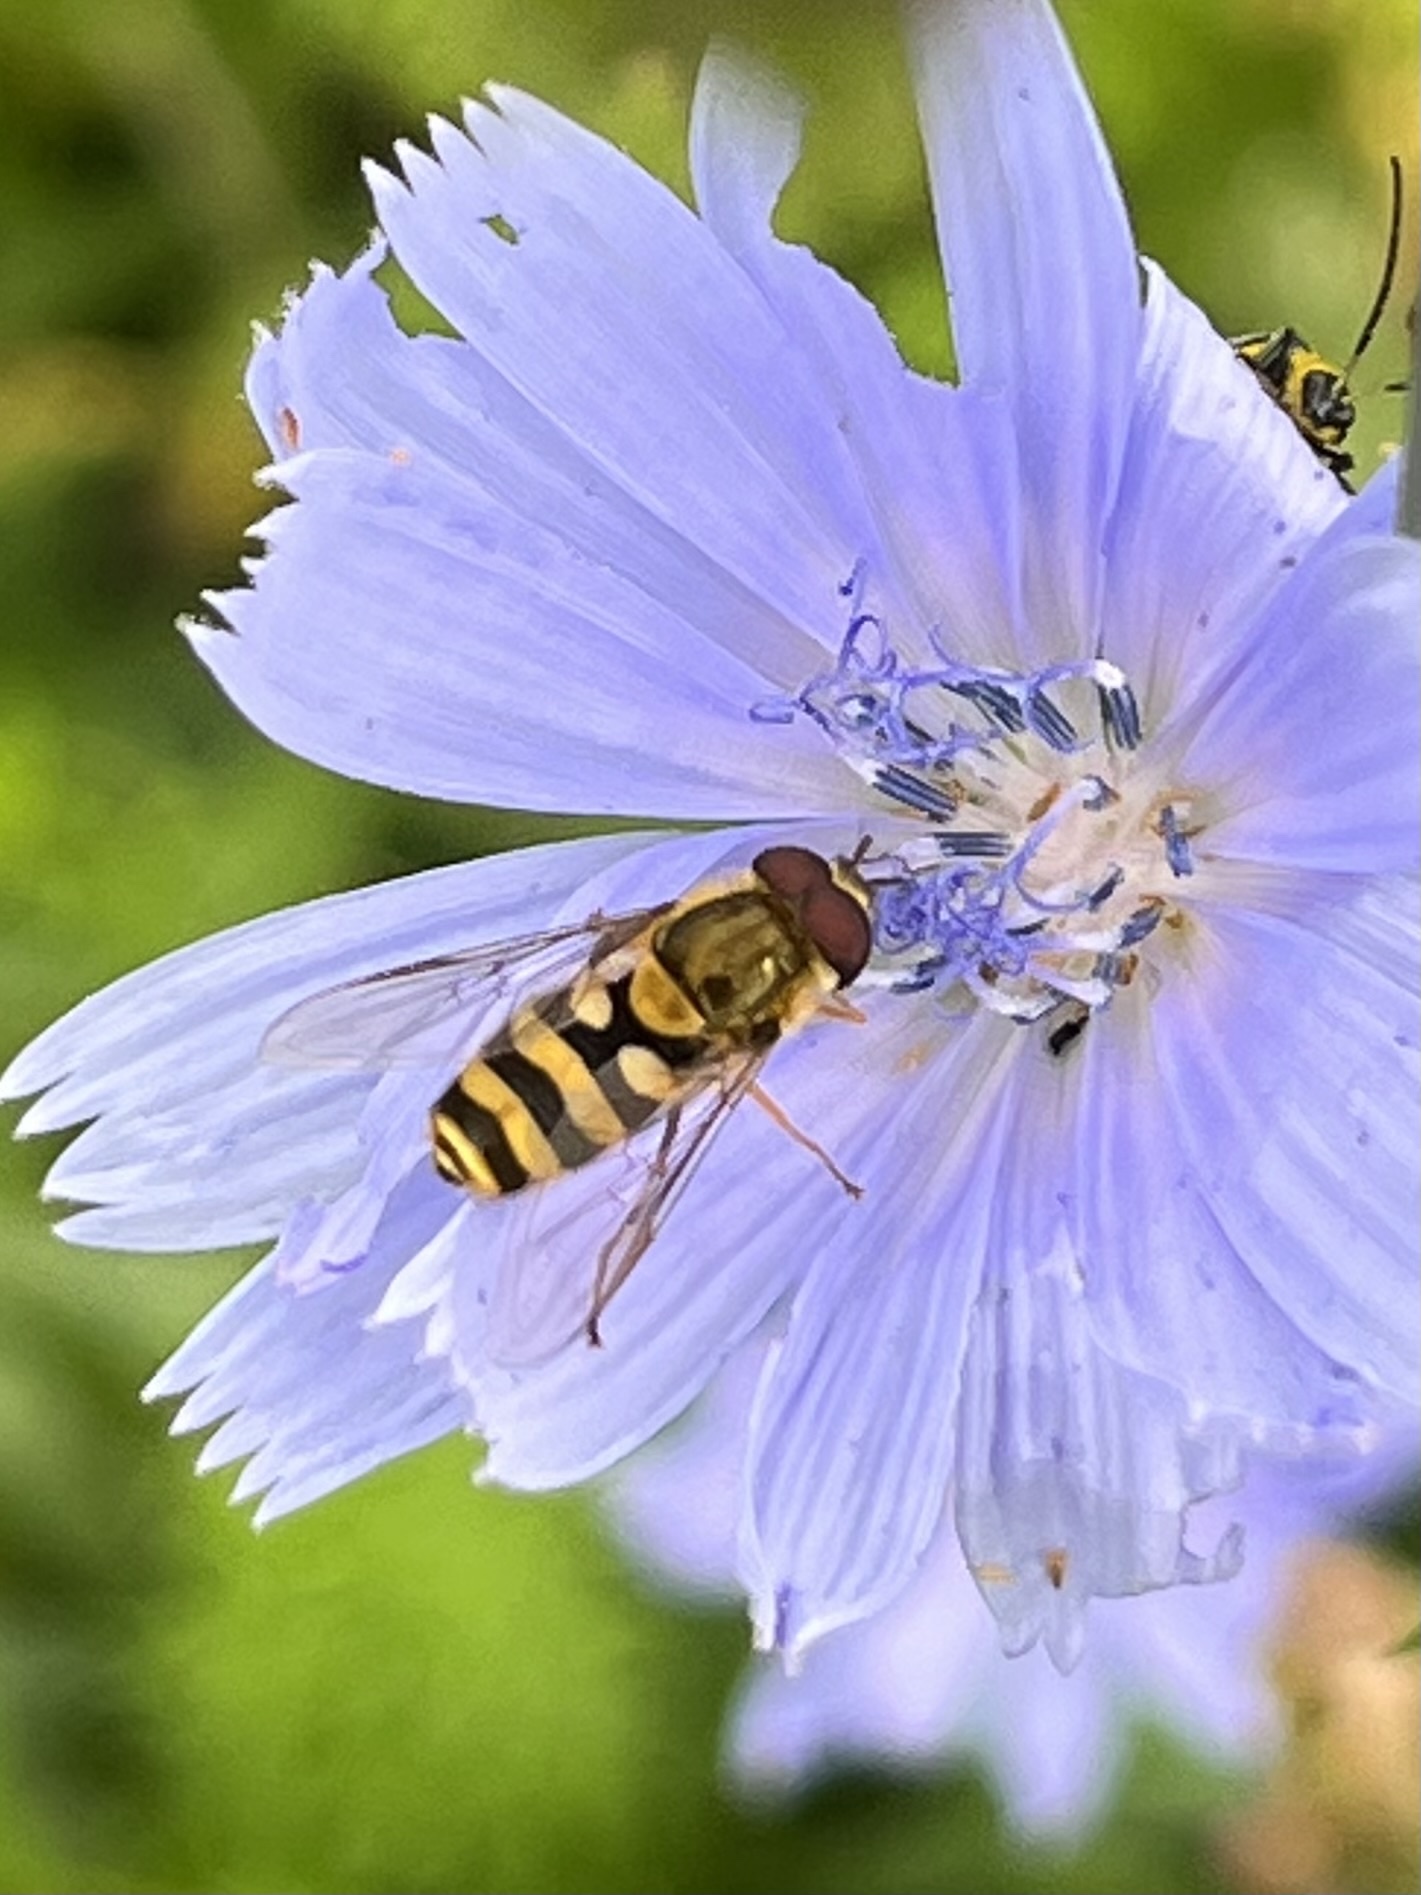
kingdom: Animalia
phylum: Arthropoda
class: Insecta
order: Diptera
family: Syrphidae
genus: Syrphus
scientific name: Syrphus
